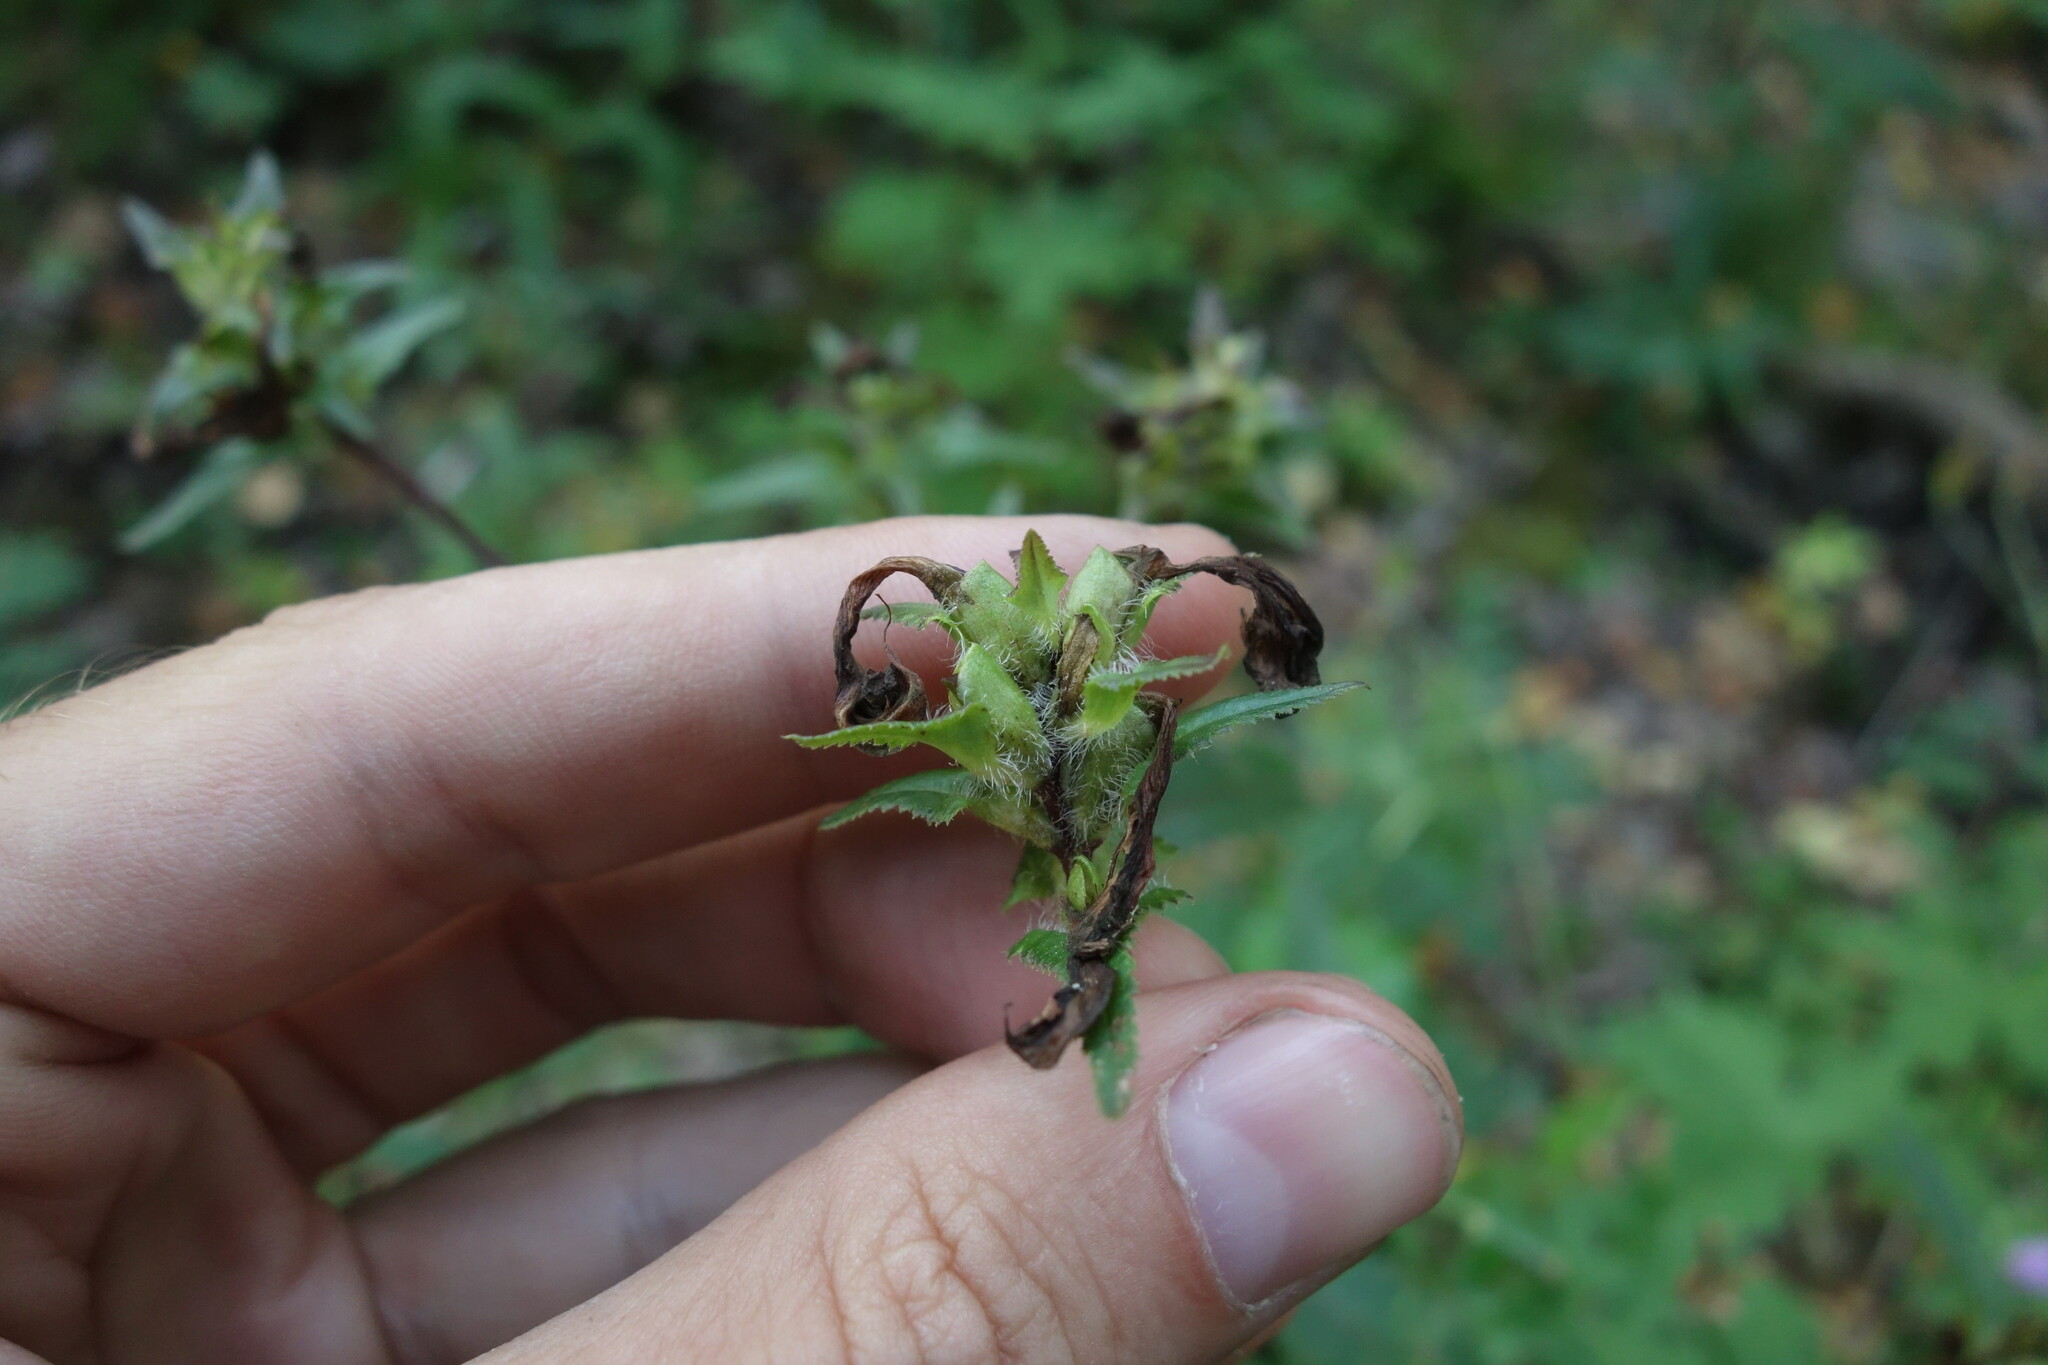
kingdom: Plantae
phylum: Tracheophyta
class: Magnoliopsida
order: Lamiales
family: Orobanchaceae
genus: Pedicularis
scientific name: Pedicularis resupinata
